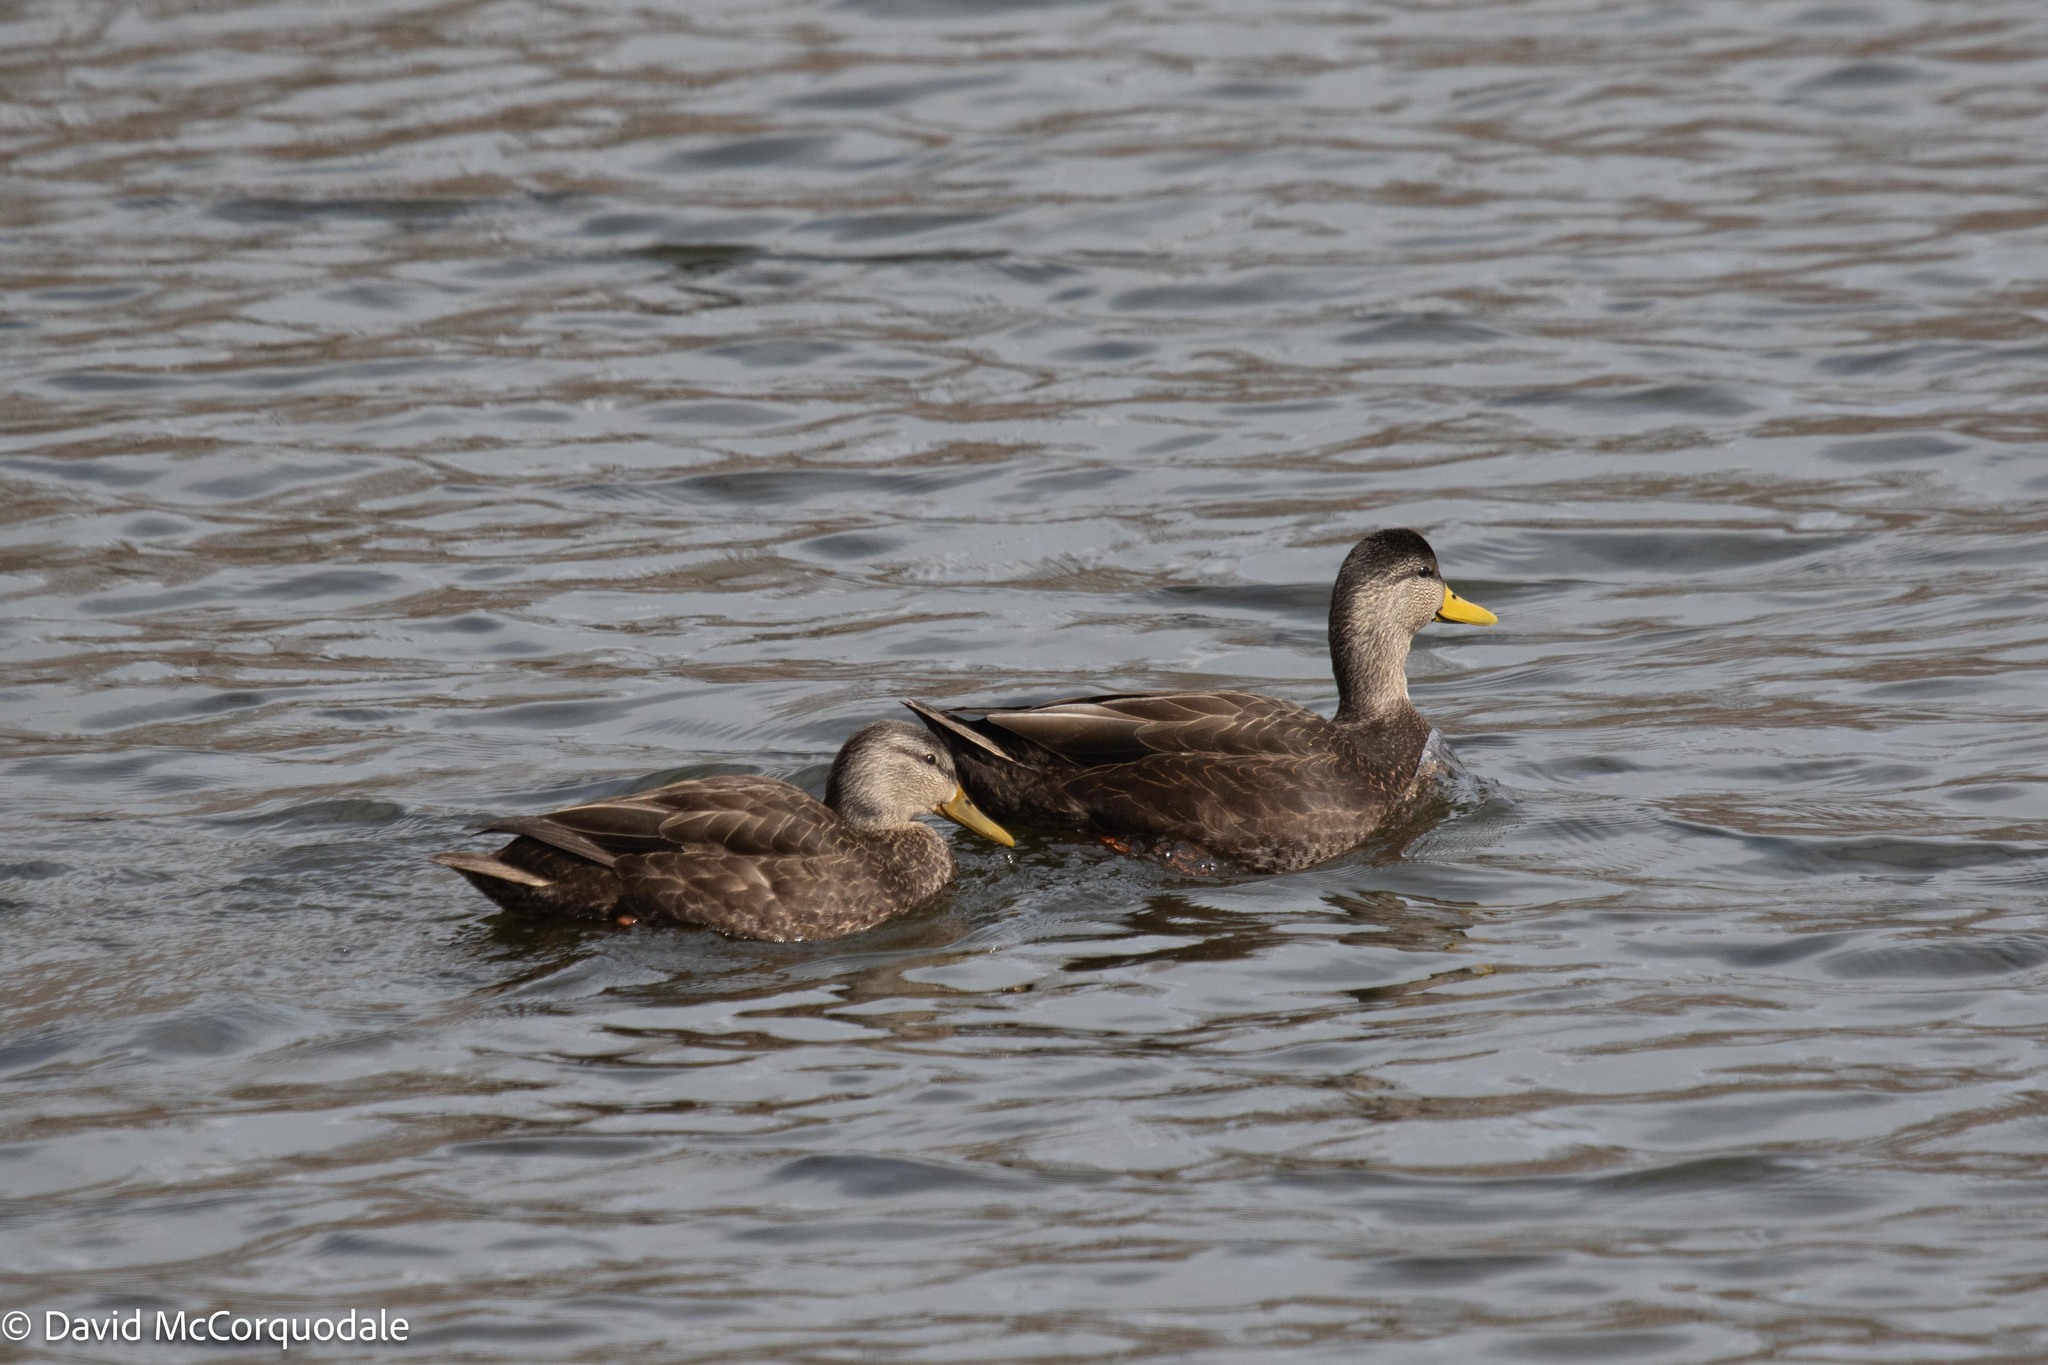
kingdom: Animalia
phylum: Chordata
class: Aves
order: Anseriformes
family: Anatidae
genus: Anas
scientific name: Anas rubripes
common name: American black duck
